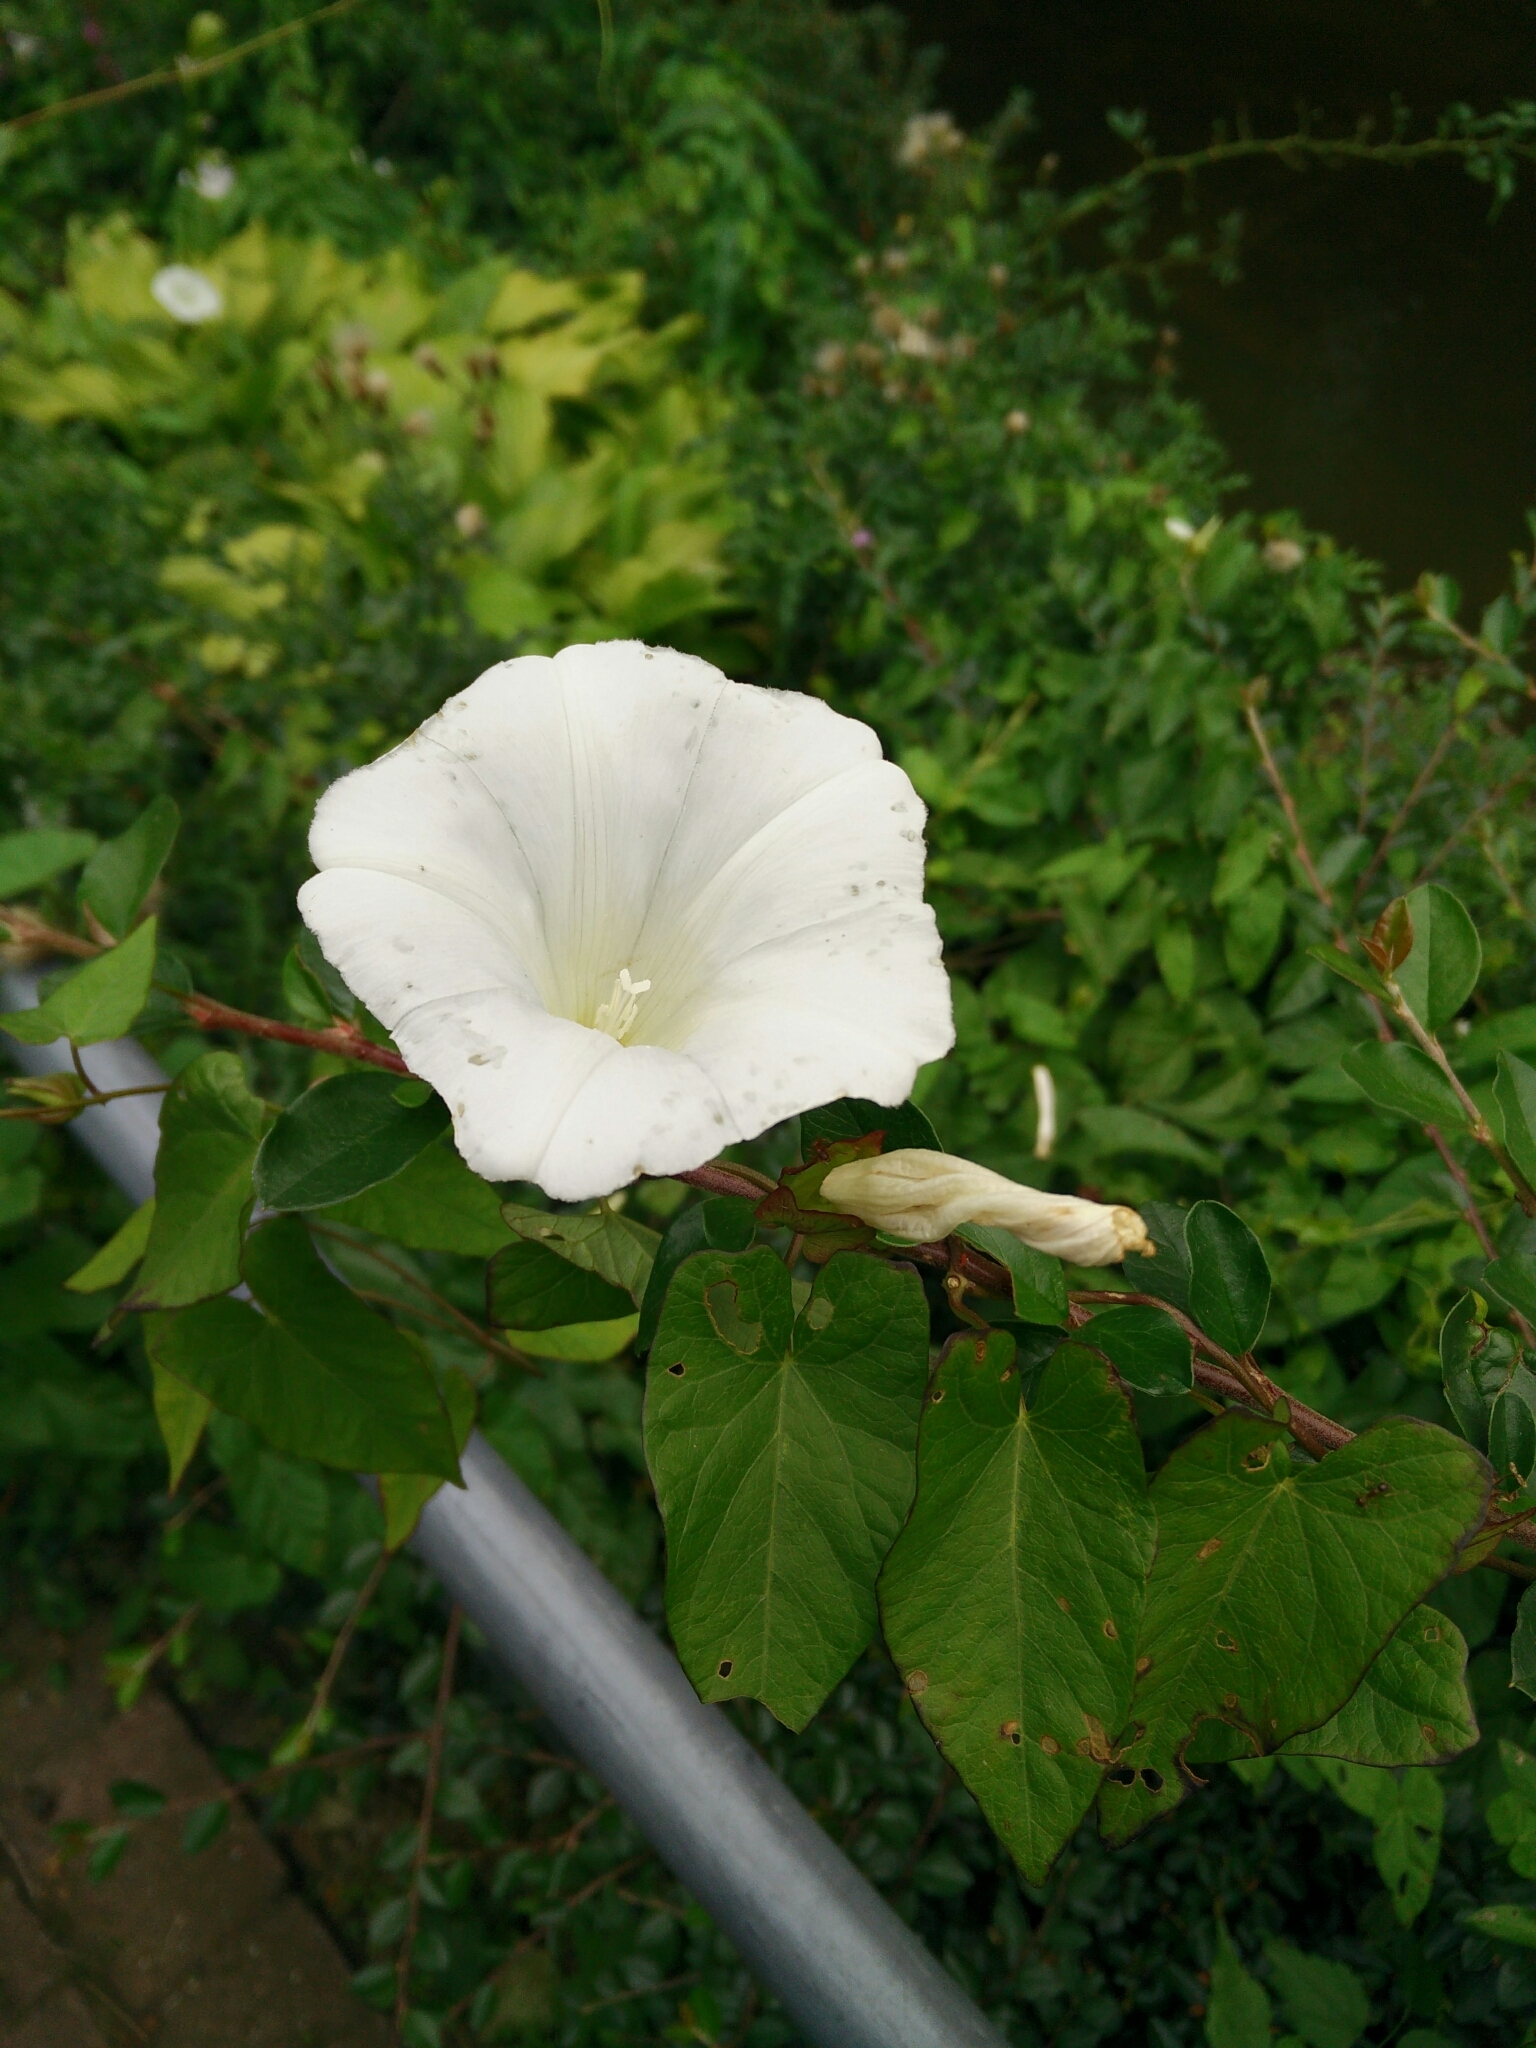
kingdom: Plantae
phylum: Tracheophyta
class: Magnoliopsida
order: Solanales
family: Convolvulaceae
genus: Calystegia
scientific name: Calystegia sepium
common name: Hedge bindweed
